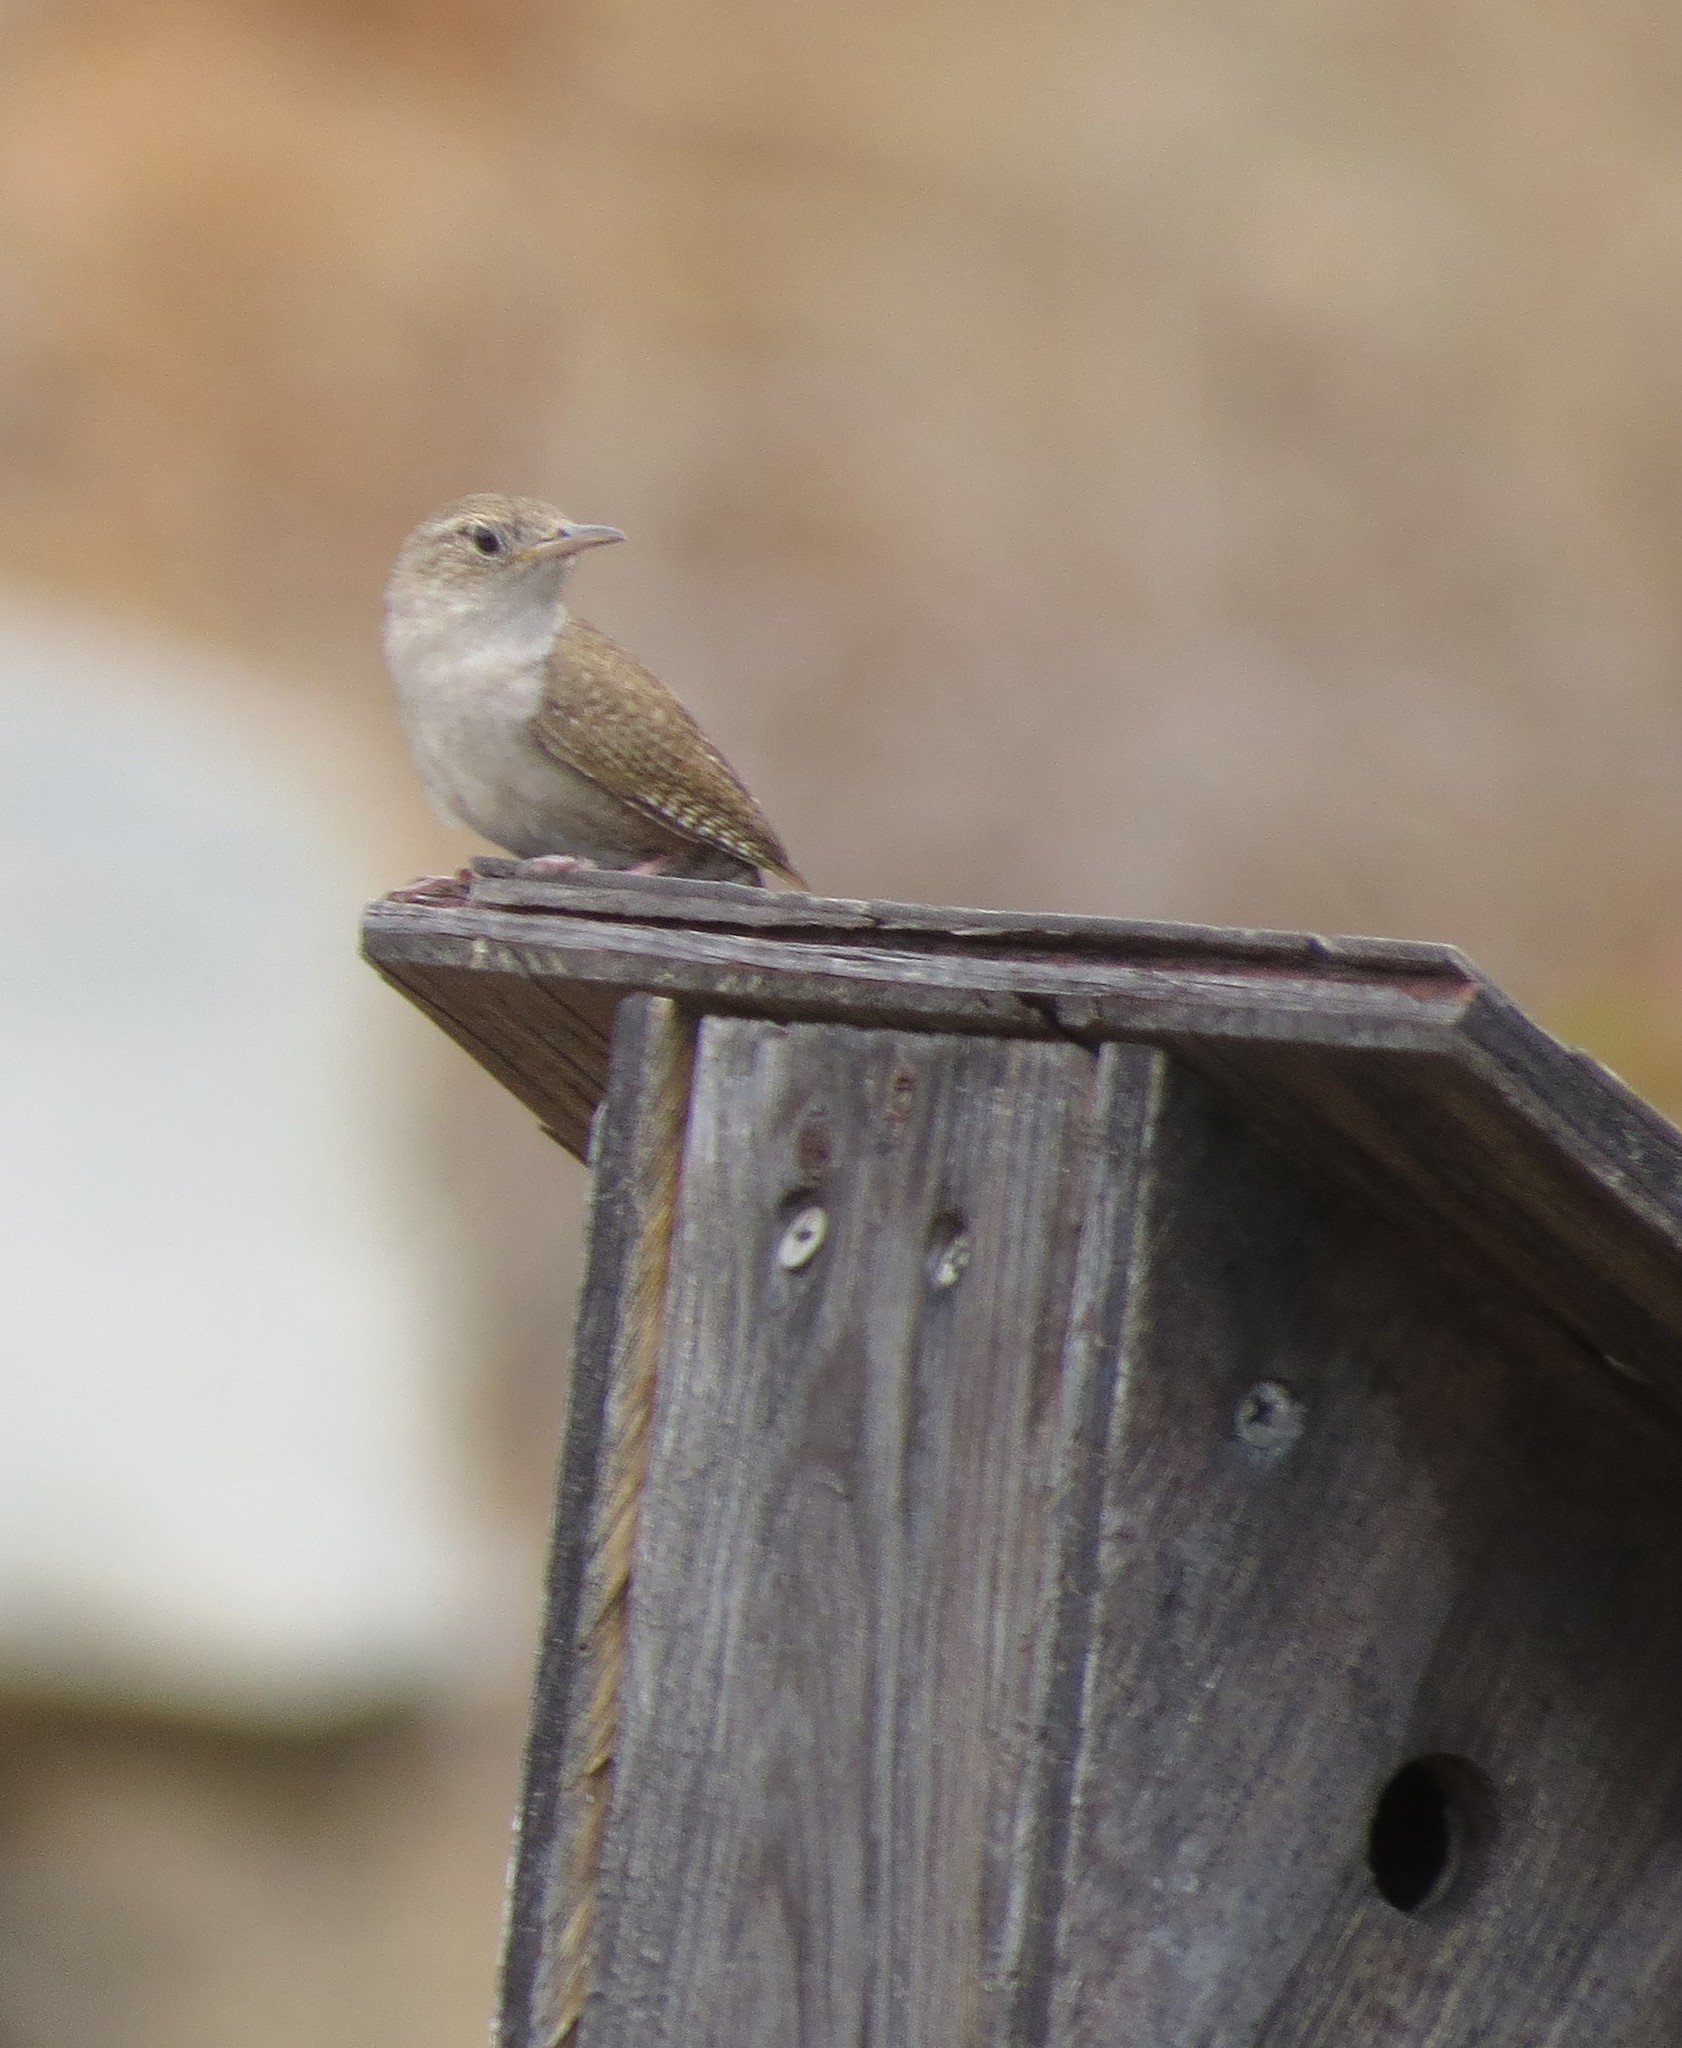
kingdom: Animalia
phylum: Chordata
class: Aves
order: Passeriformes
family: Troglodytidae
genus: Troglodytes
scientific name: Troglodytes aedon
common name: House wren
